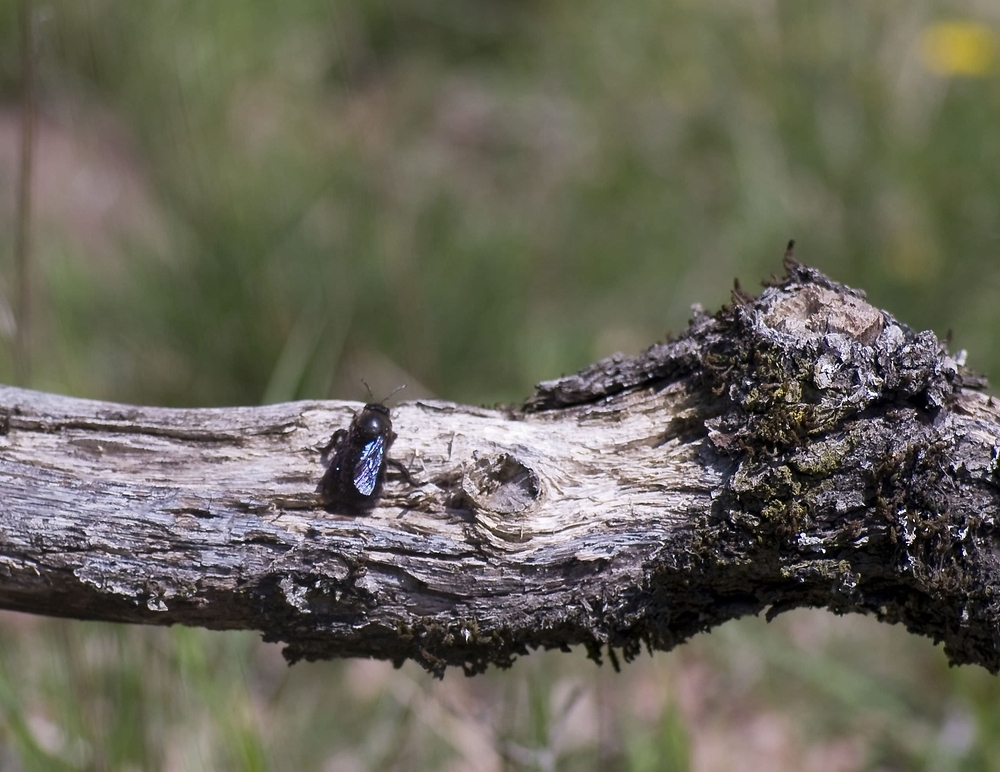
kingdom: Animalia
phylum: Arthropoda
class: Insecta
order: Hymenoptera
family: Apidae
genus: Xylocopa
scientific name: Xylocopa violacea
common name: Violet carpenter bee
